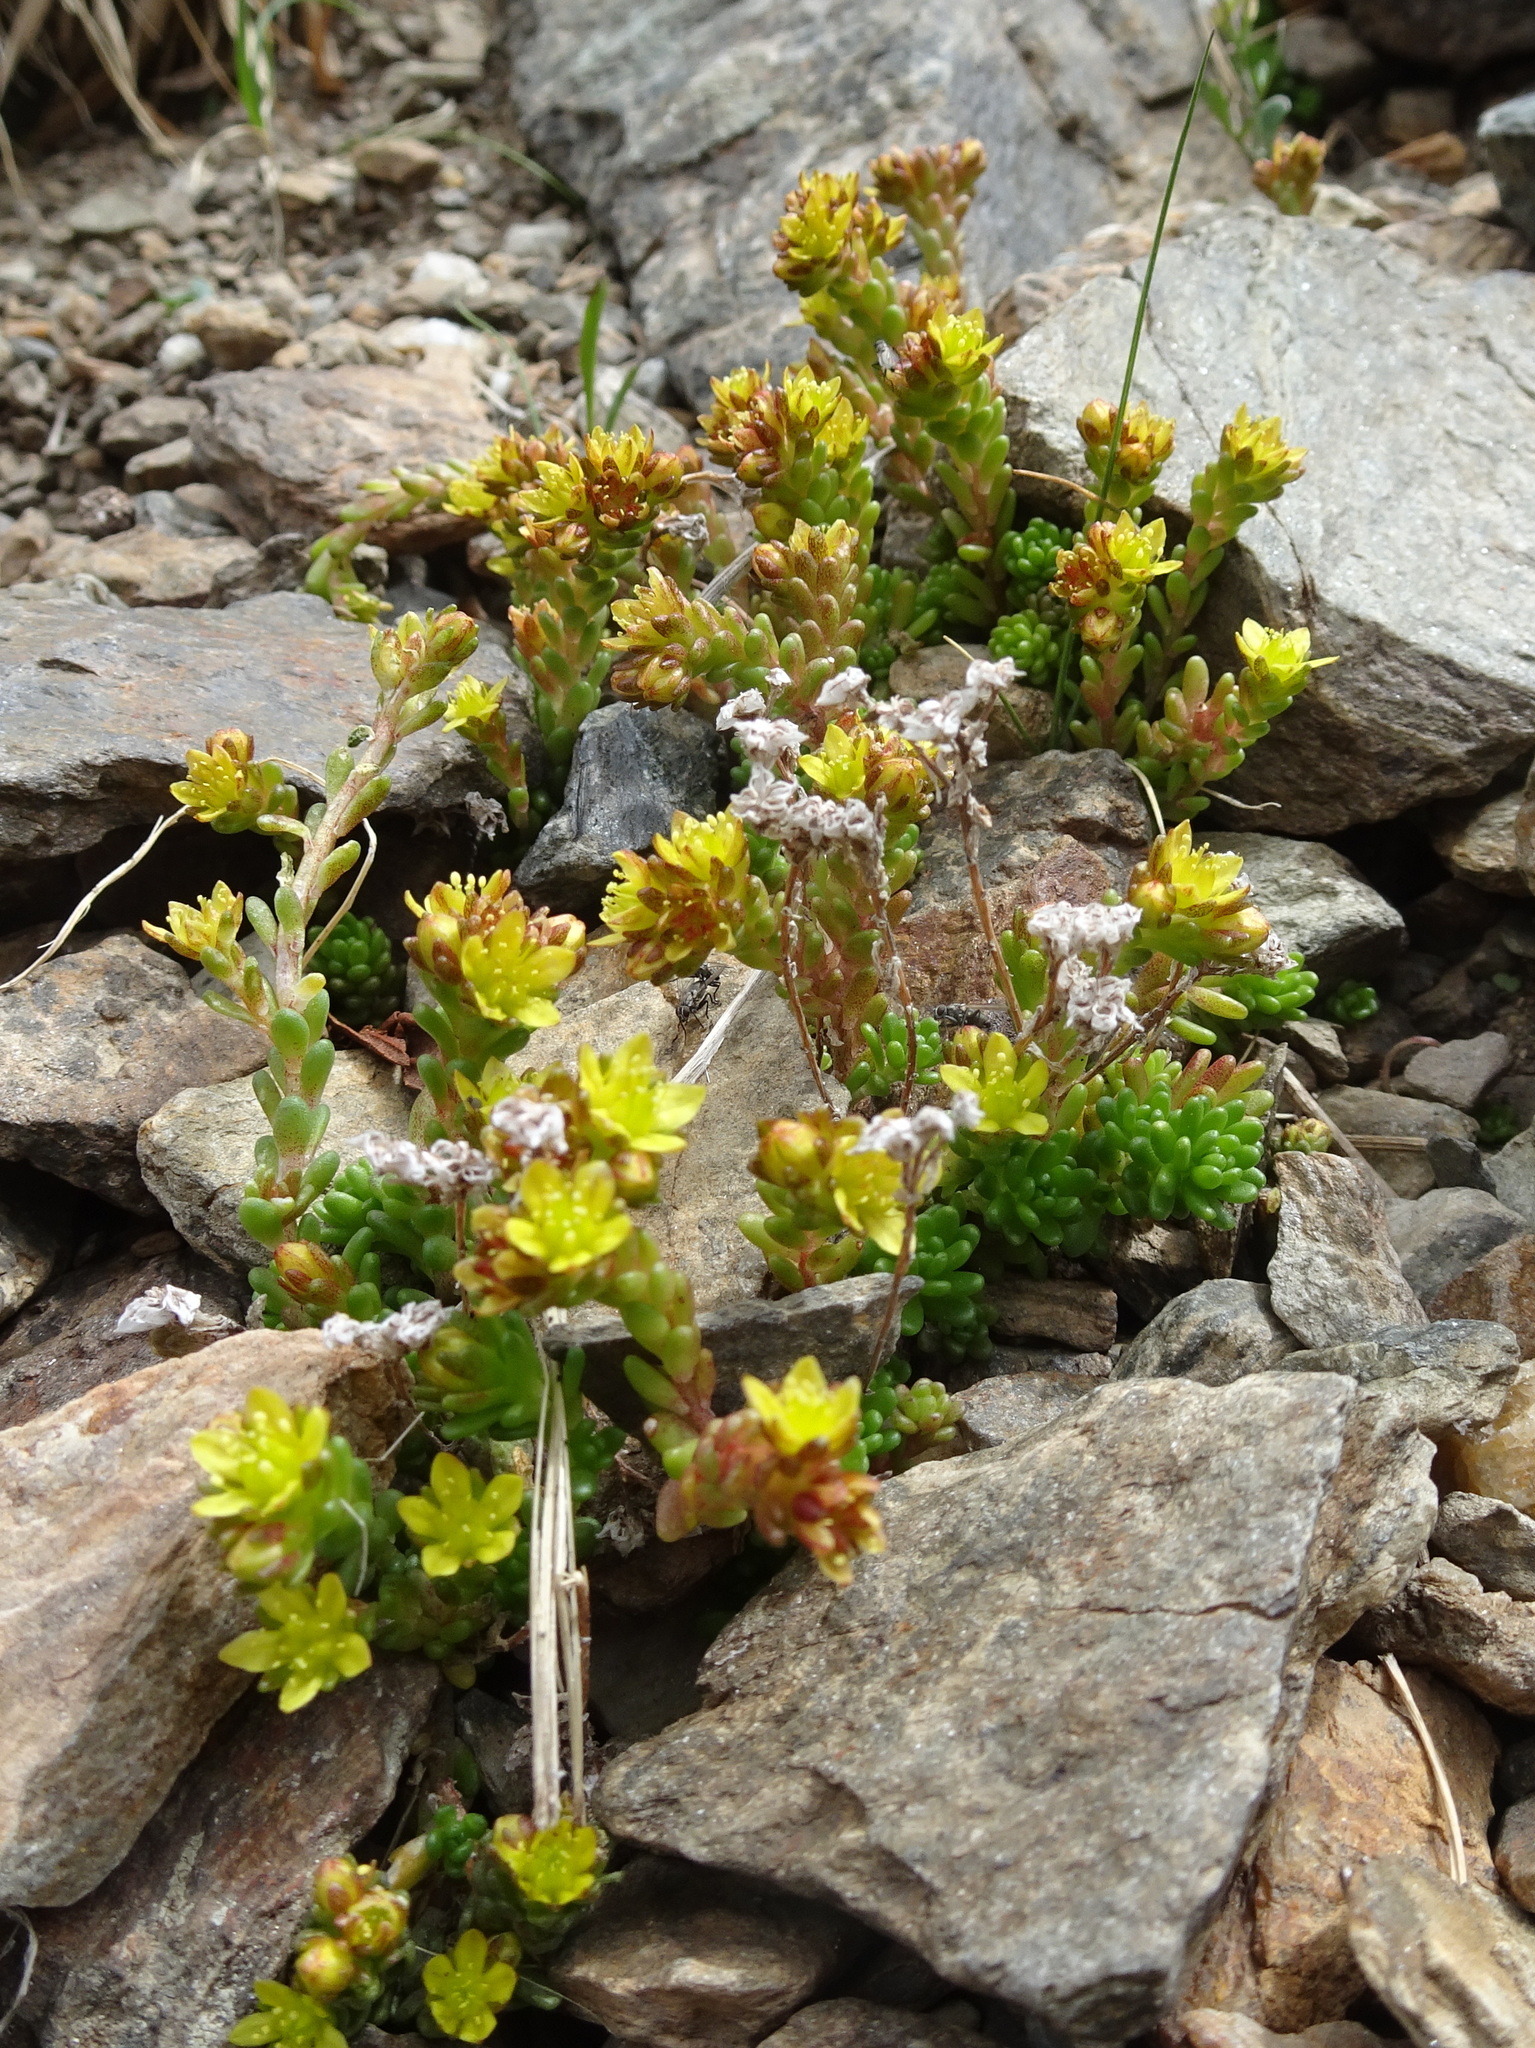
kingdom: Plantae
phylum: Tracheophyta
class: Magnoliopsida
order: Saxifragales
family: Crassulaceae
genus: Sedum
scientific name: Sedum alpestre
